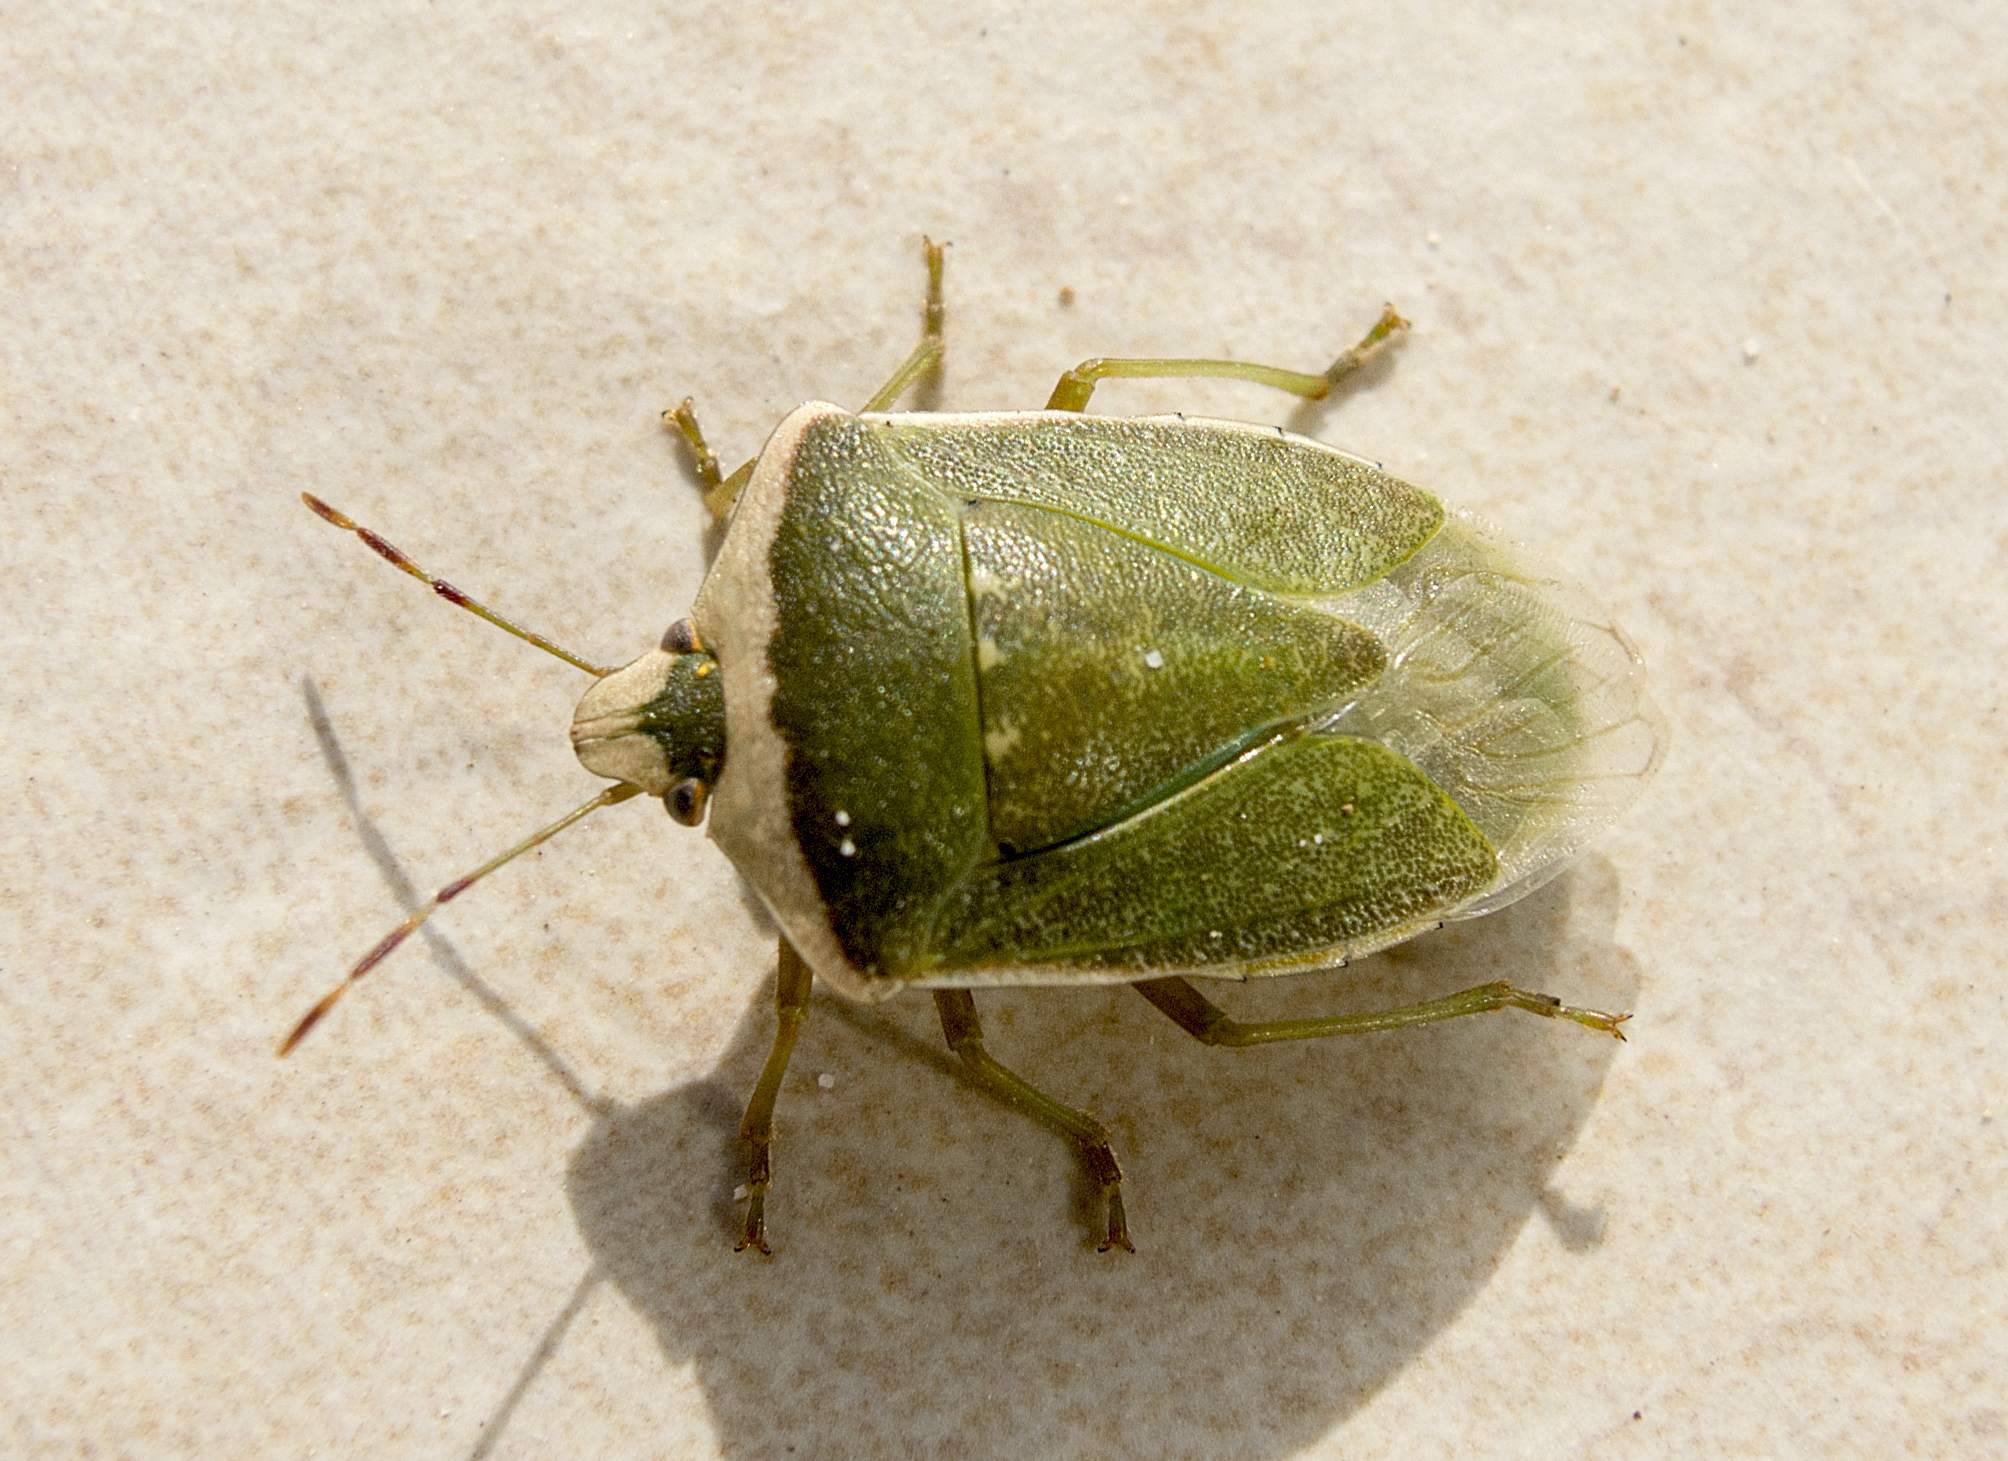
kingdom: Animalia
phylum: Arthropoda
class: Insecta
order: Hemiptera
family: Pentatomidae
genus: Nezara
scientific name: Nezara viridula
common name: Southern green stink bug
